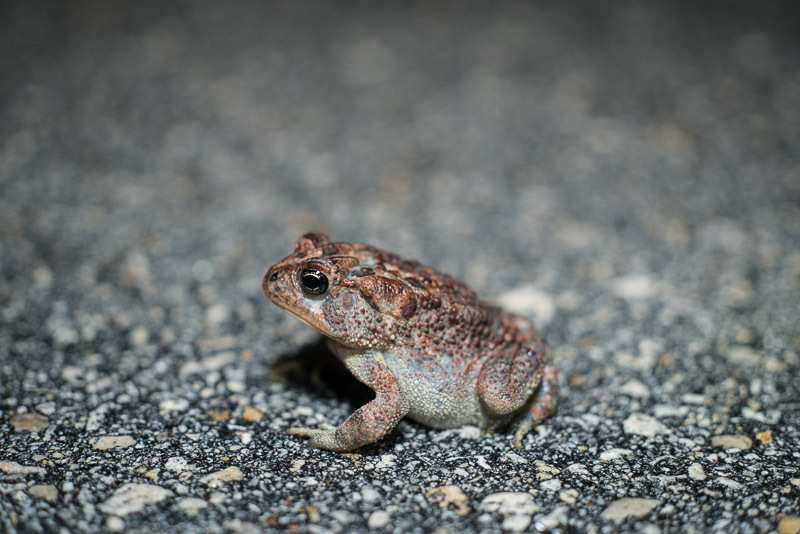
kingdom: Animalia
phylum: Chordata
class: Amphibia
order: Anura
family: Bufonidae
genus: Anaxyrus
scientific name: Anaxyrus terrestris
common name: Southern toad
